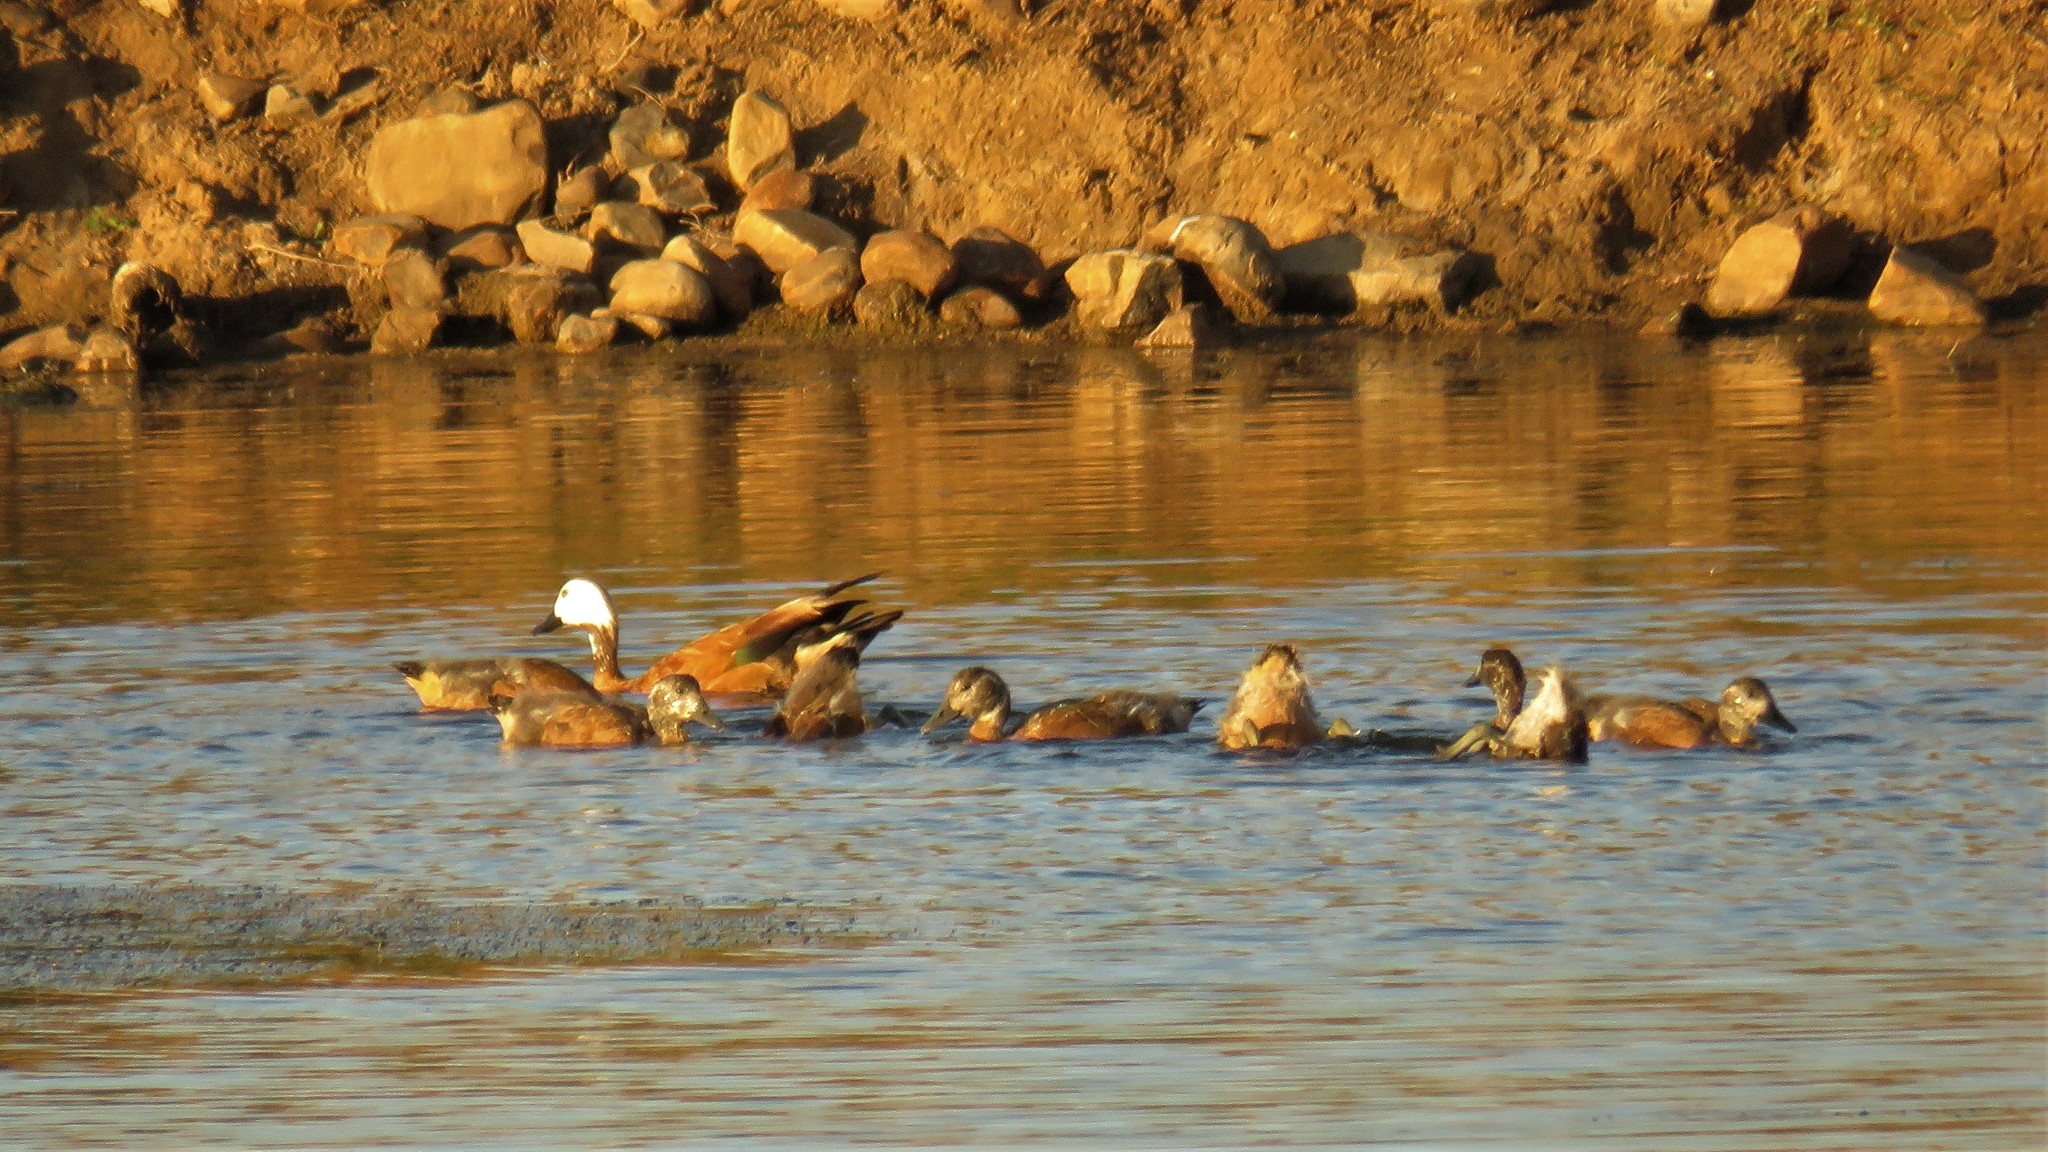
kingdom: Animalia
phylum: Chordata
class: Aves
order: Anseriformes
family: Anatidae
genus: Tadorna
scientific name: Tadorna cana
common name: South african shelduck
